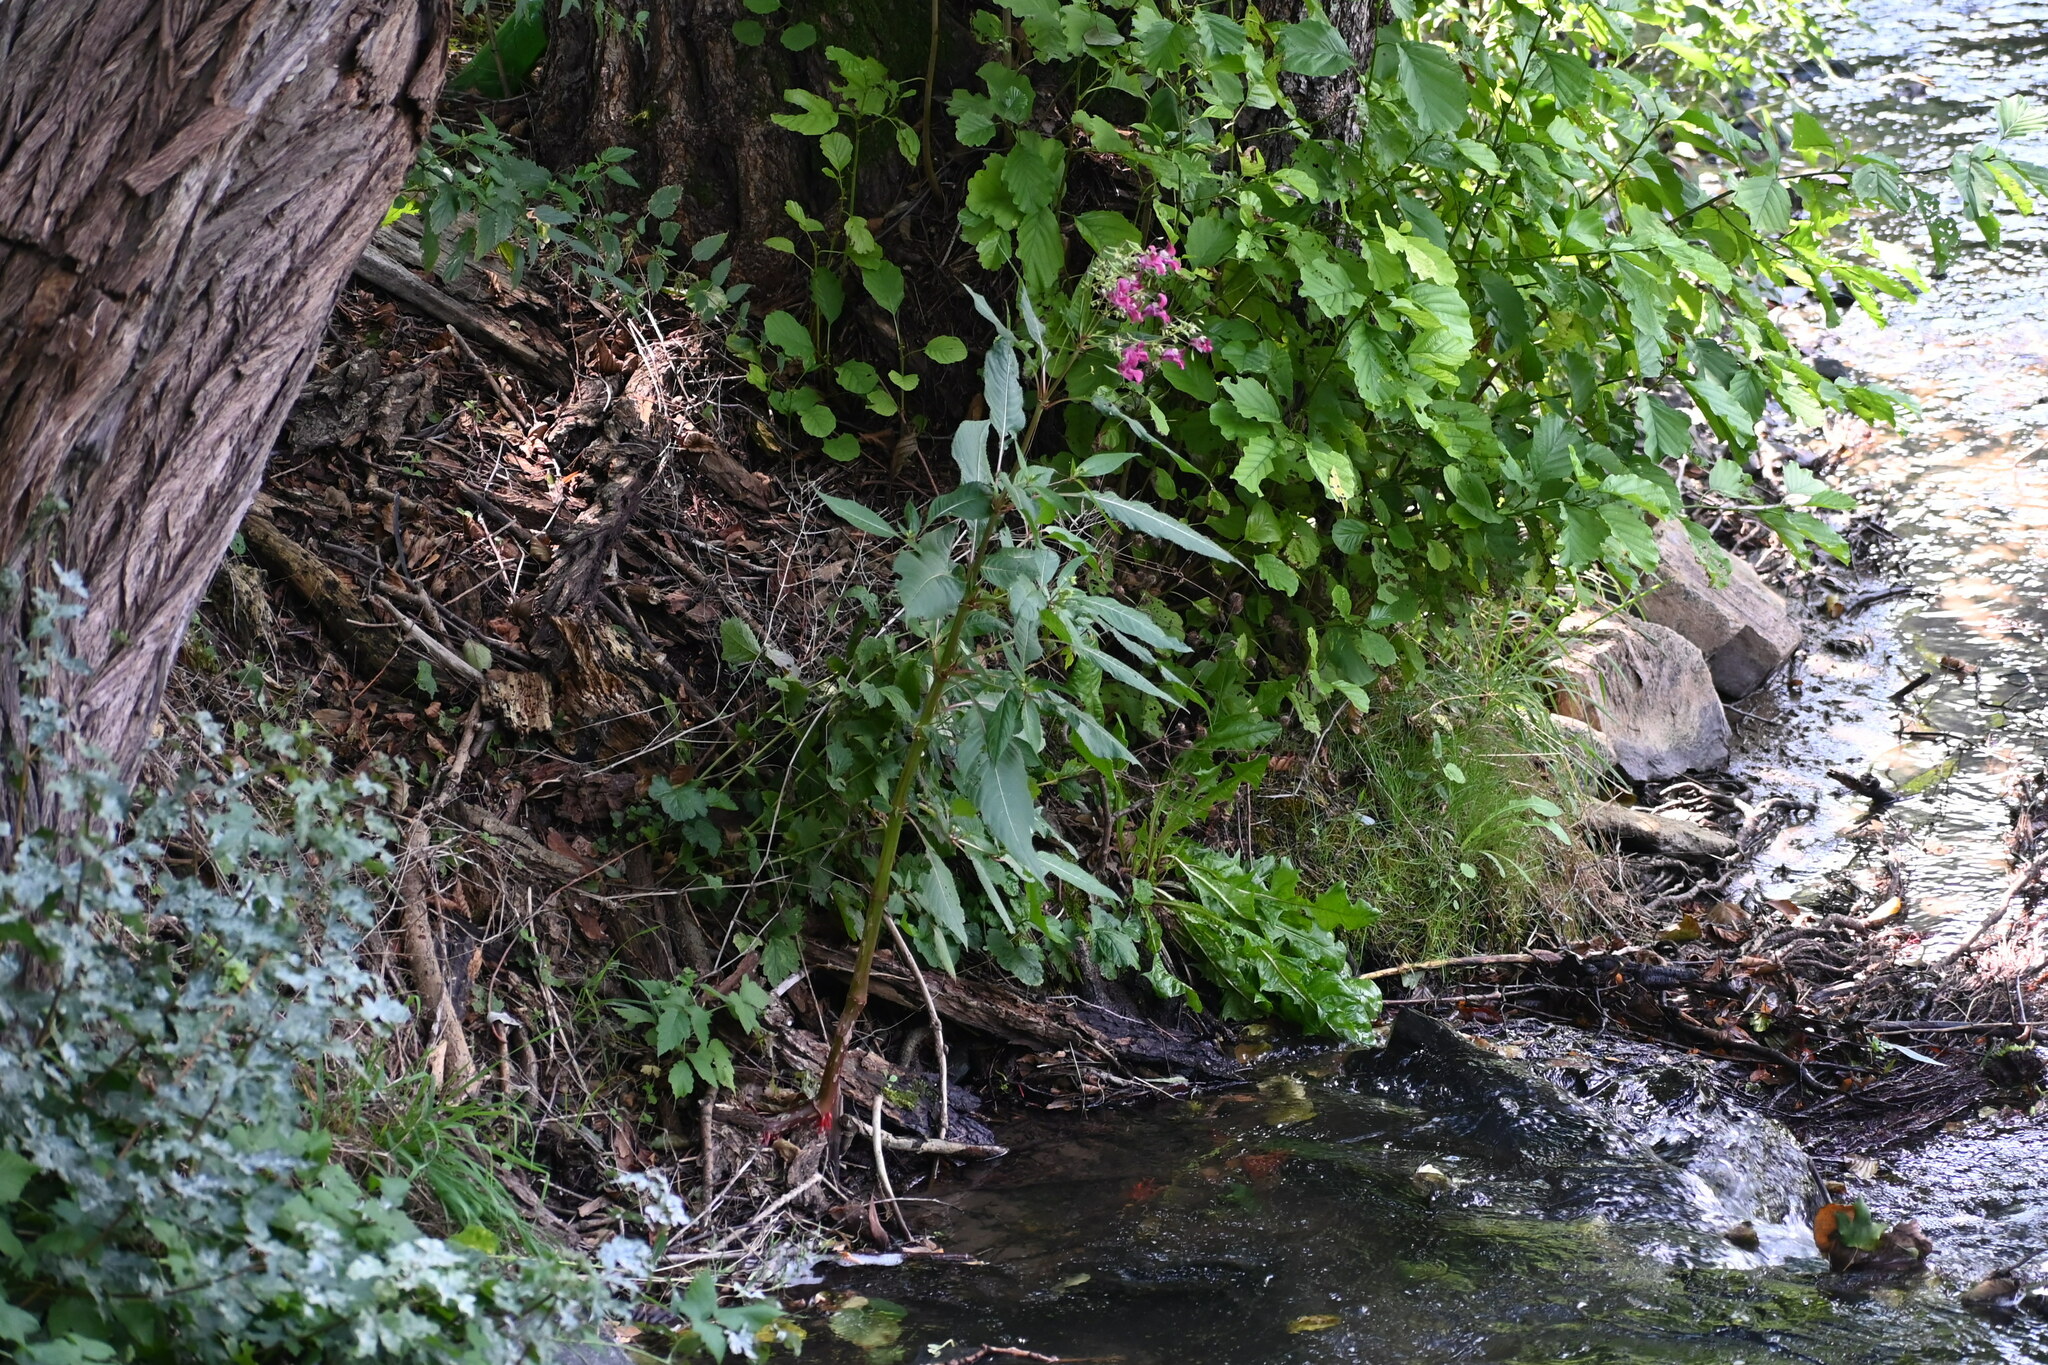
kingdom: Plantae
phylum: Tracheophyta
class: Magnoliopsida
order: Ericales
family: Balsaminaceae
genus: Impatiens
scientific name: Impatiens glandulifera
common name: Himalayan balsam
